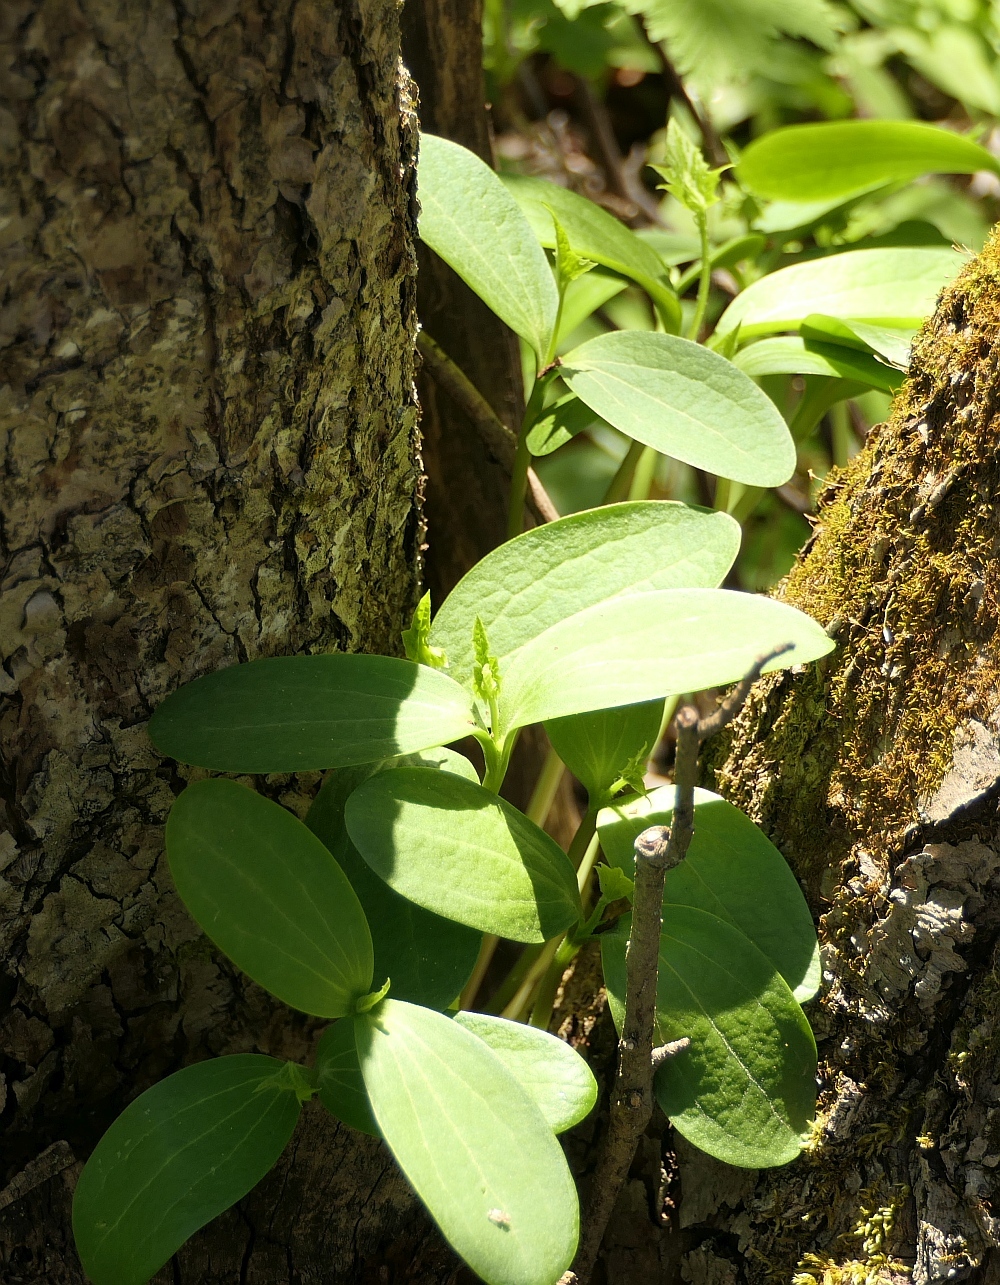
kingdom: Plantae
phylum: Tracheophyta
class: Magnoliopsida
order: Cucurbitales
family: Cucurbitaceae
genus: Echinocystis
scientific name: Echinocystis lobata
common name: Wild cucumber
